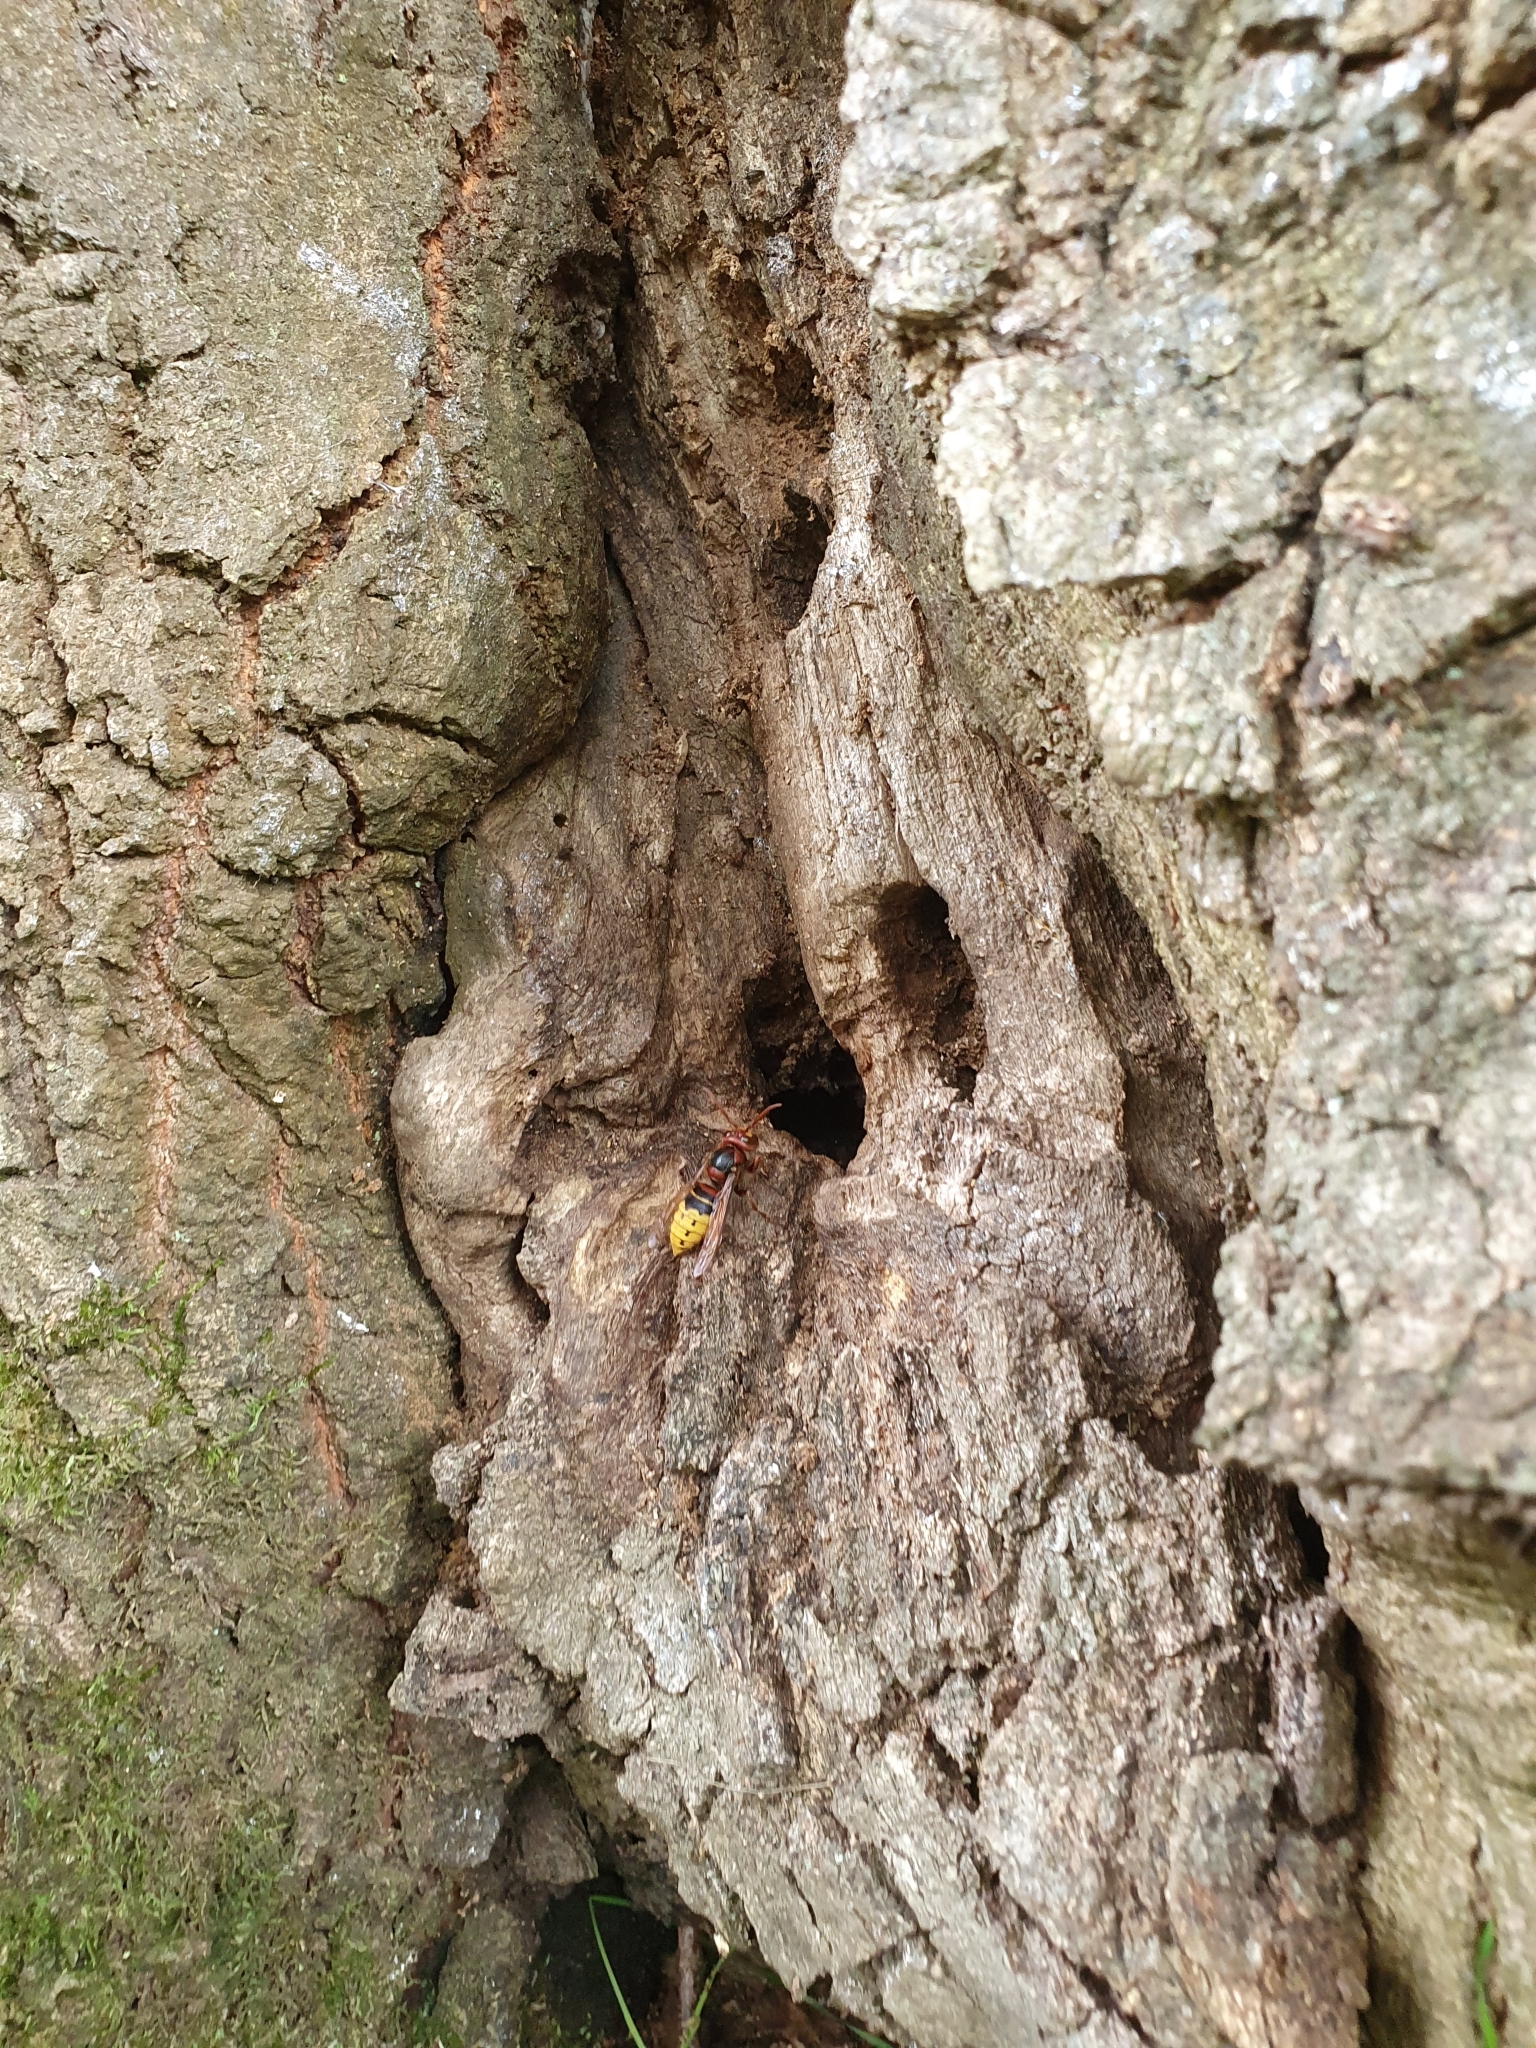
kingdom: Animalia
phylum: Arthropoda
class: Insecta
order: Hymenoptera
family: Vespidae
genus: Vespa
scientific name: Vespa crabro
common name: Hornet
